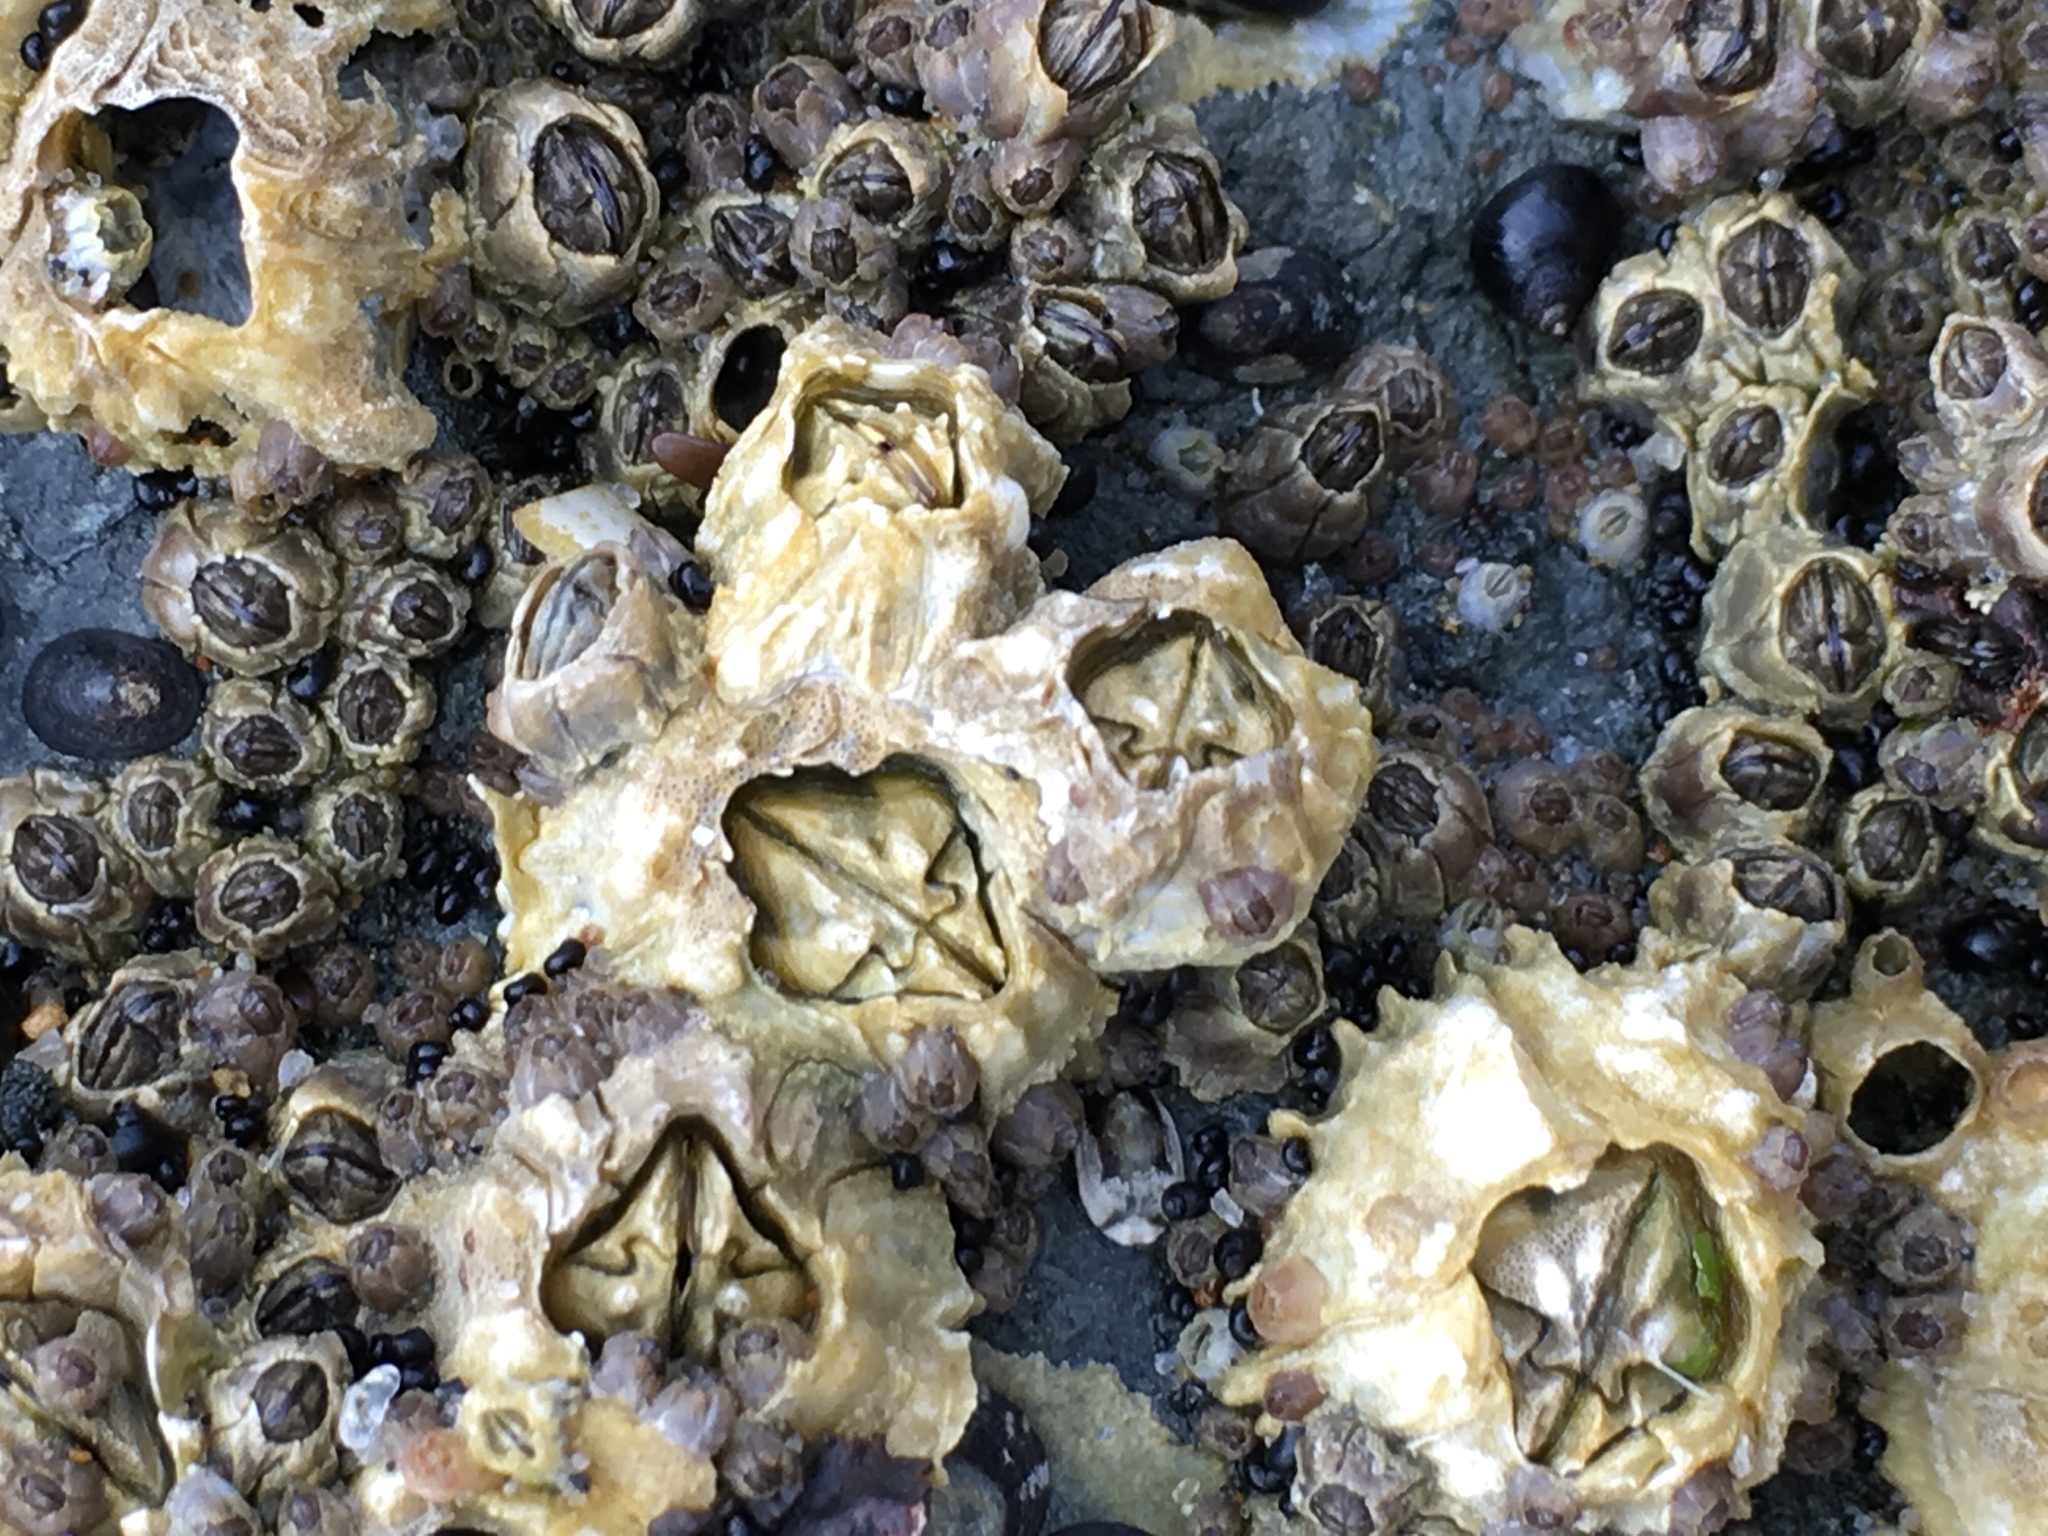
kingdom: Animalia
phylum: Arthropoda
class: Maxillopoda
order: Sessilia
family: Balanidae
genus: Balanus
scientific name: Balanus glandula
